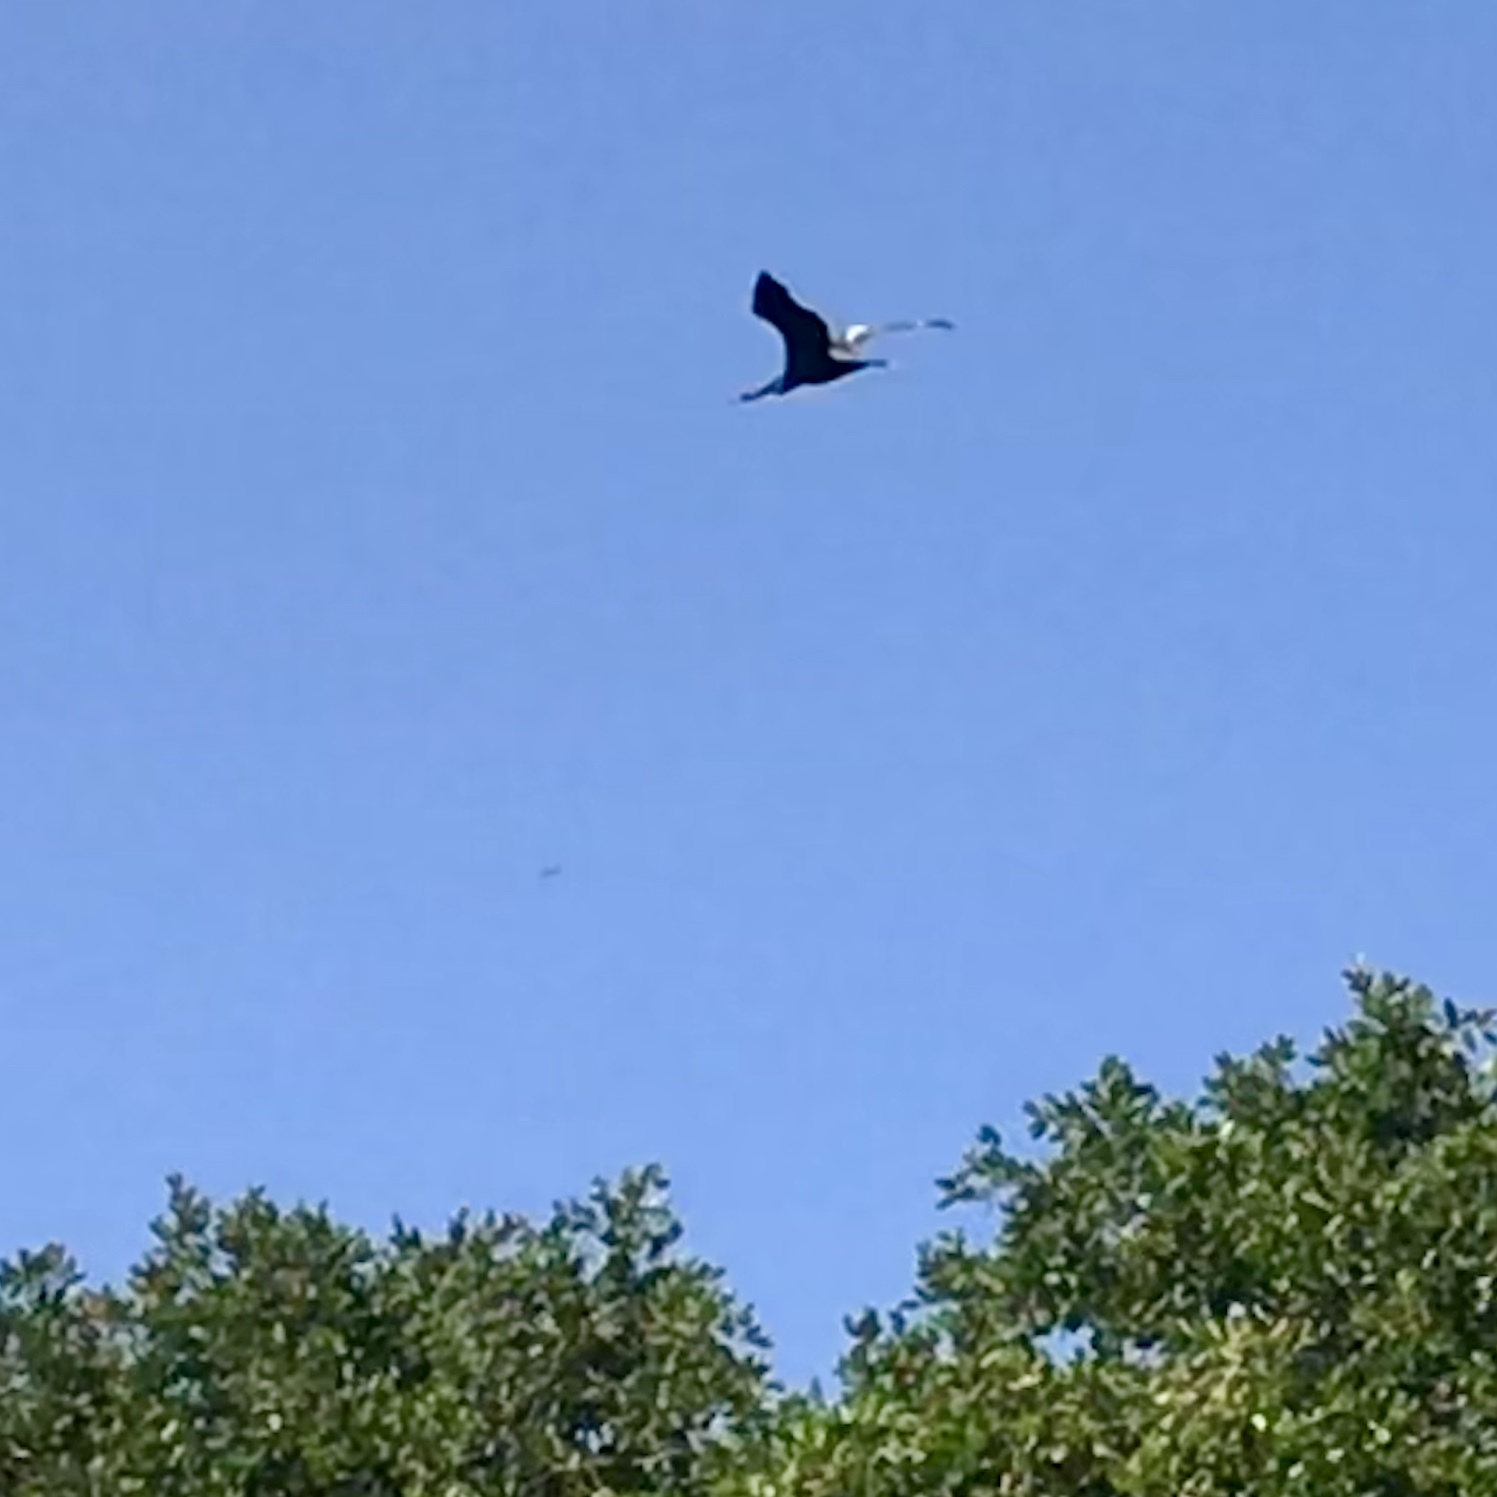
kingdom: Animalia
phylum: Chordata
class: Aves
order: Pelecaniformes
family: Ardeidae
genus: Ardea
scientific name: Ardea herodias
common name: Great blue heron
